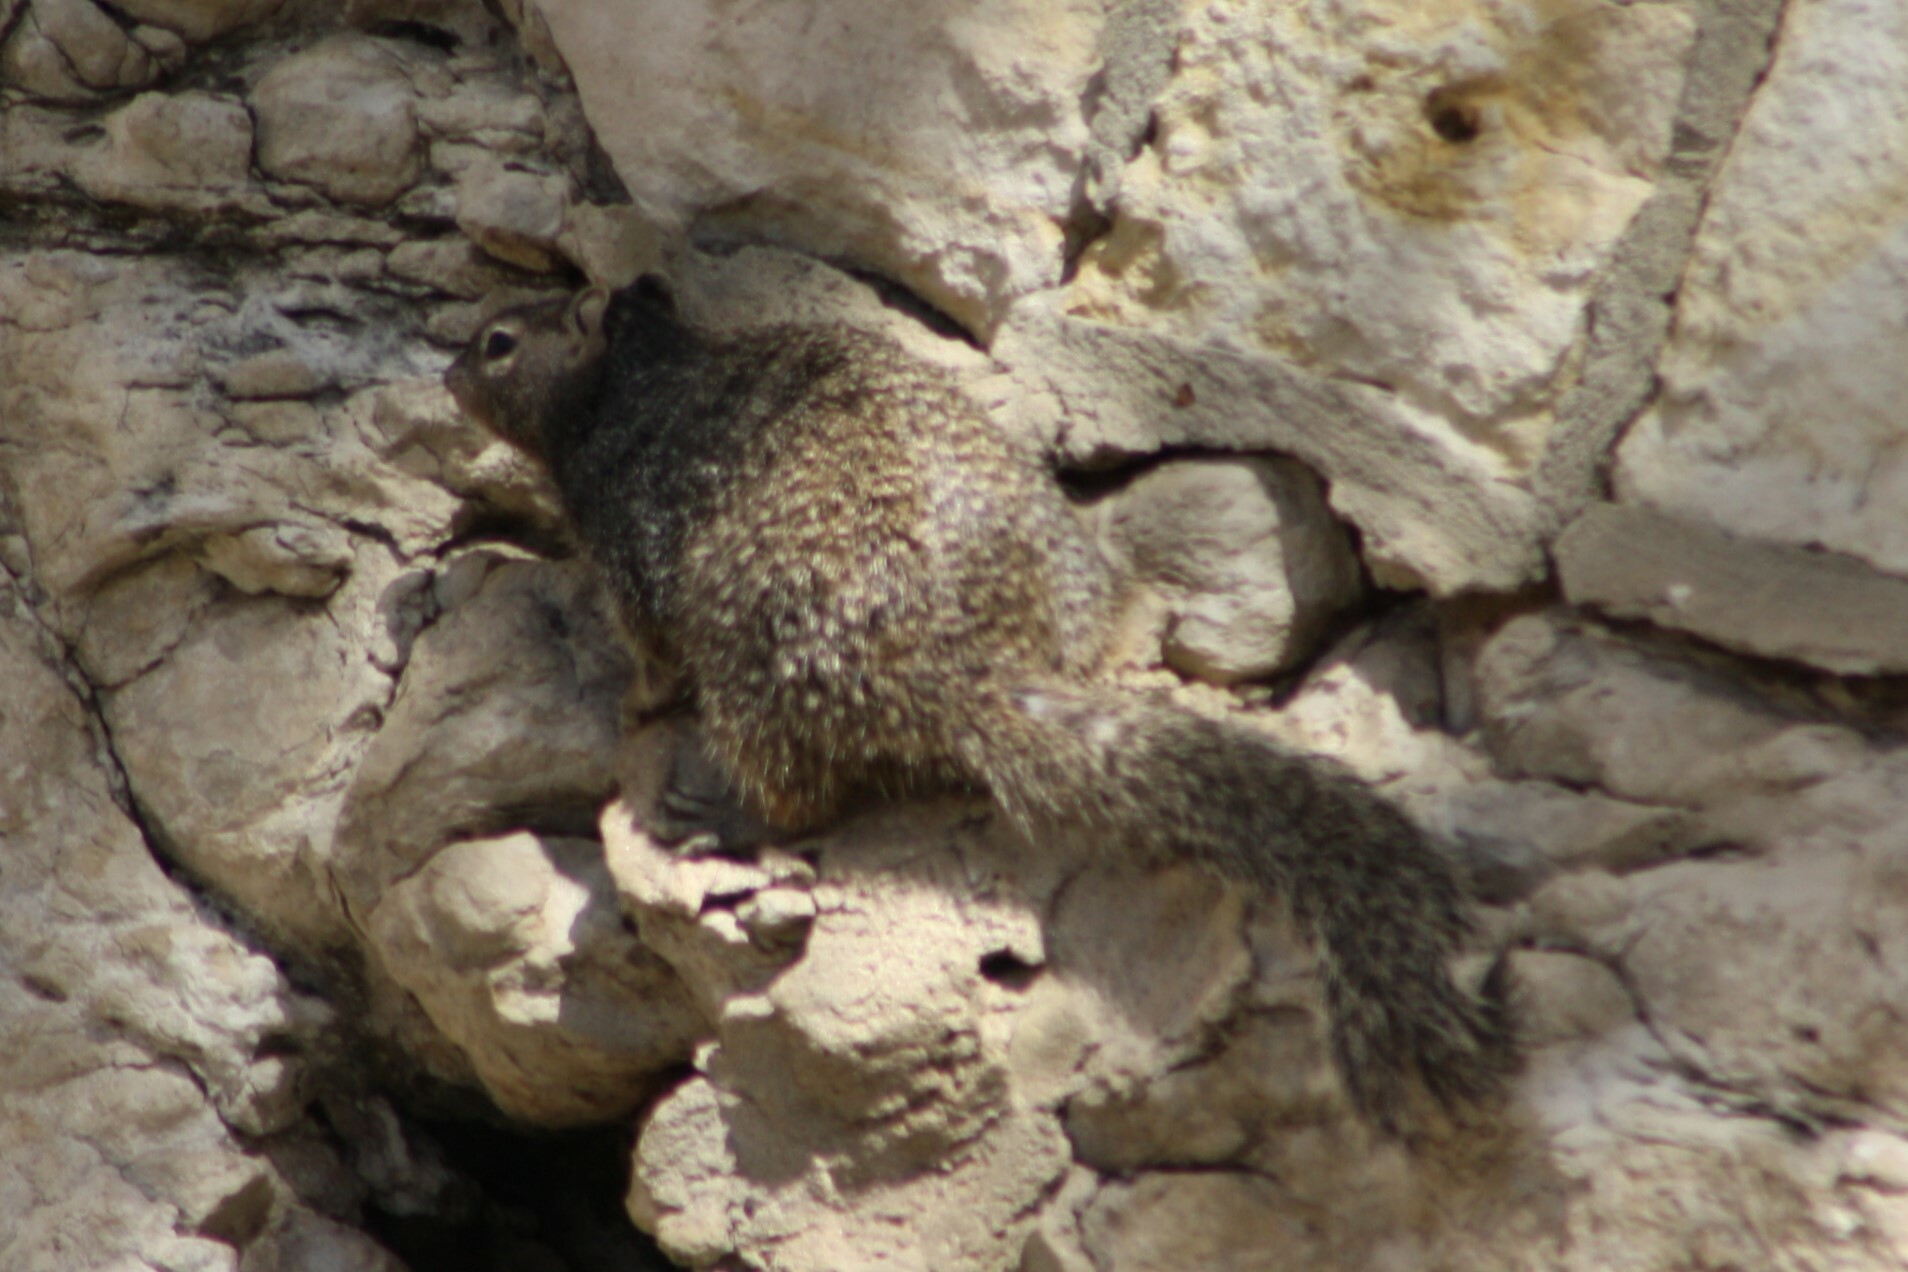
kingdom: Animalia
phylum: Chordata
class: Mammalia
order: Rodentia
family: Sciuridae
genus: Otospermophilus
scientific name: Otospermophilus variegatus
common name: Rock squirrel
